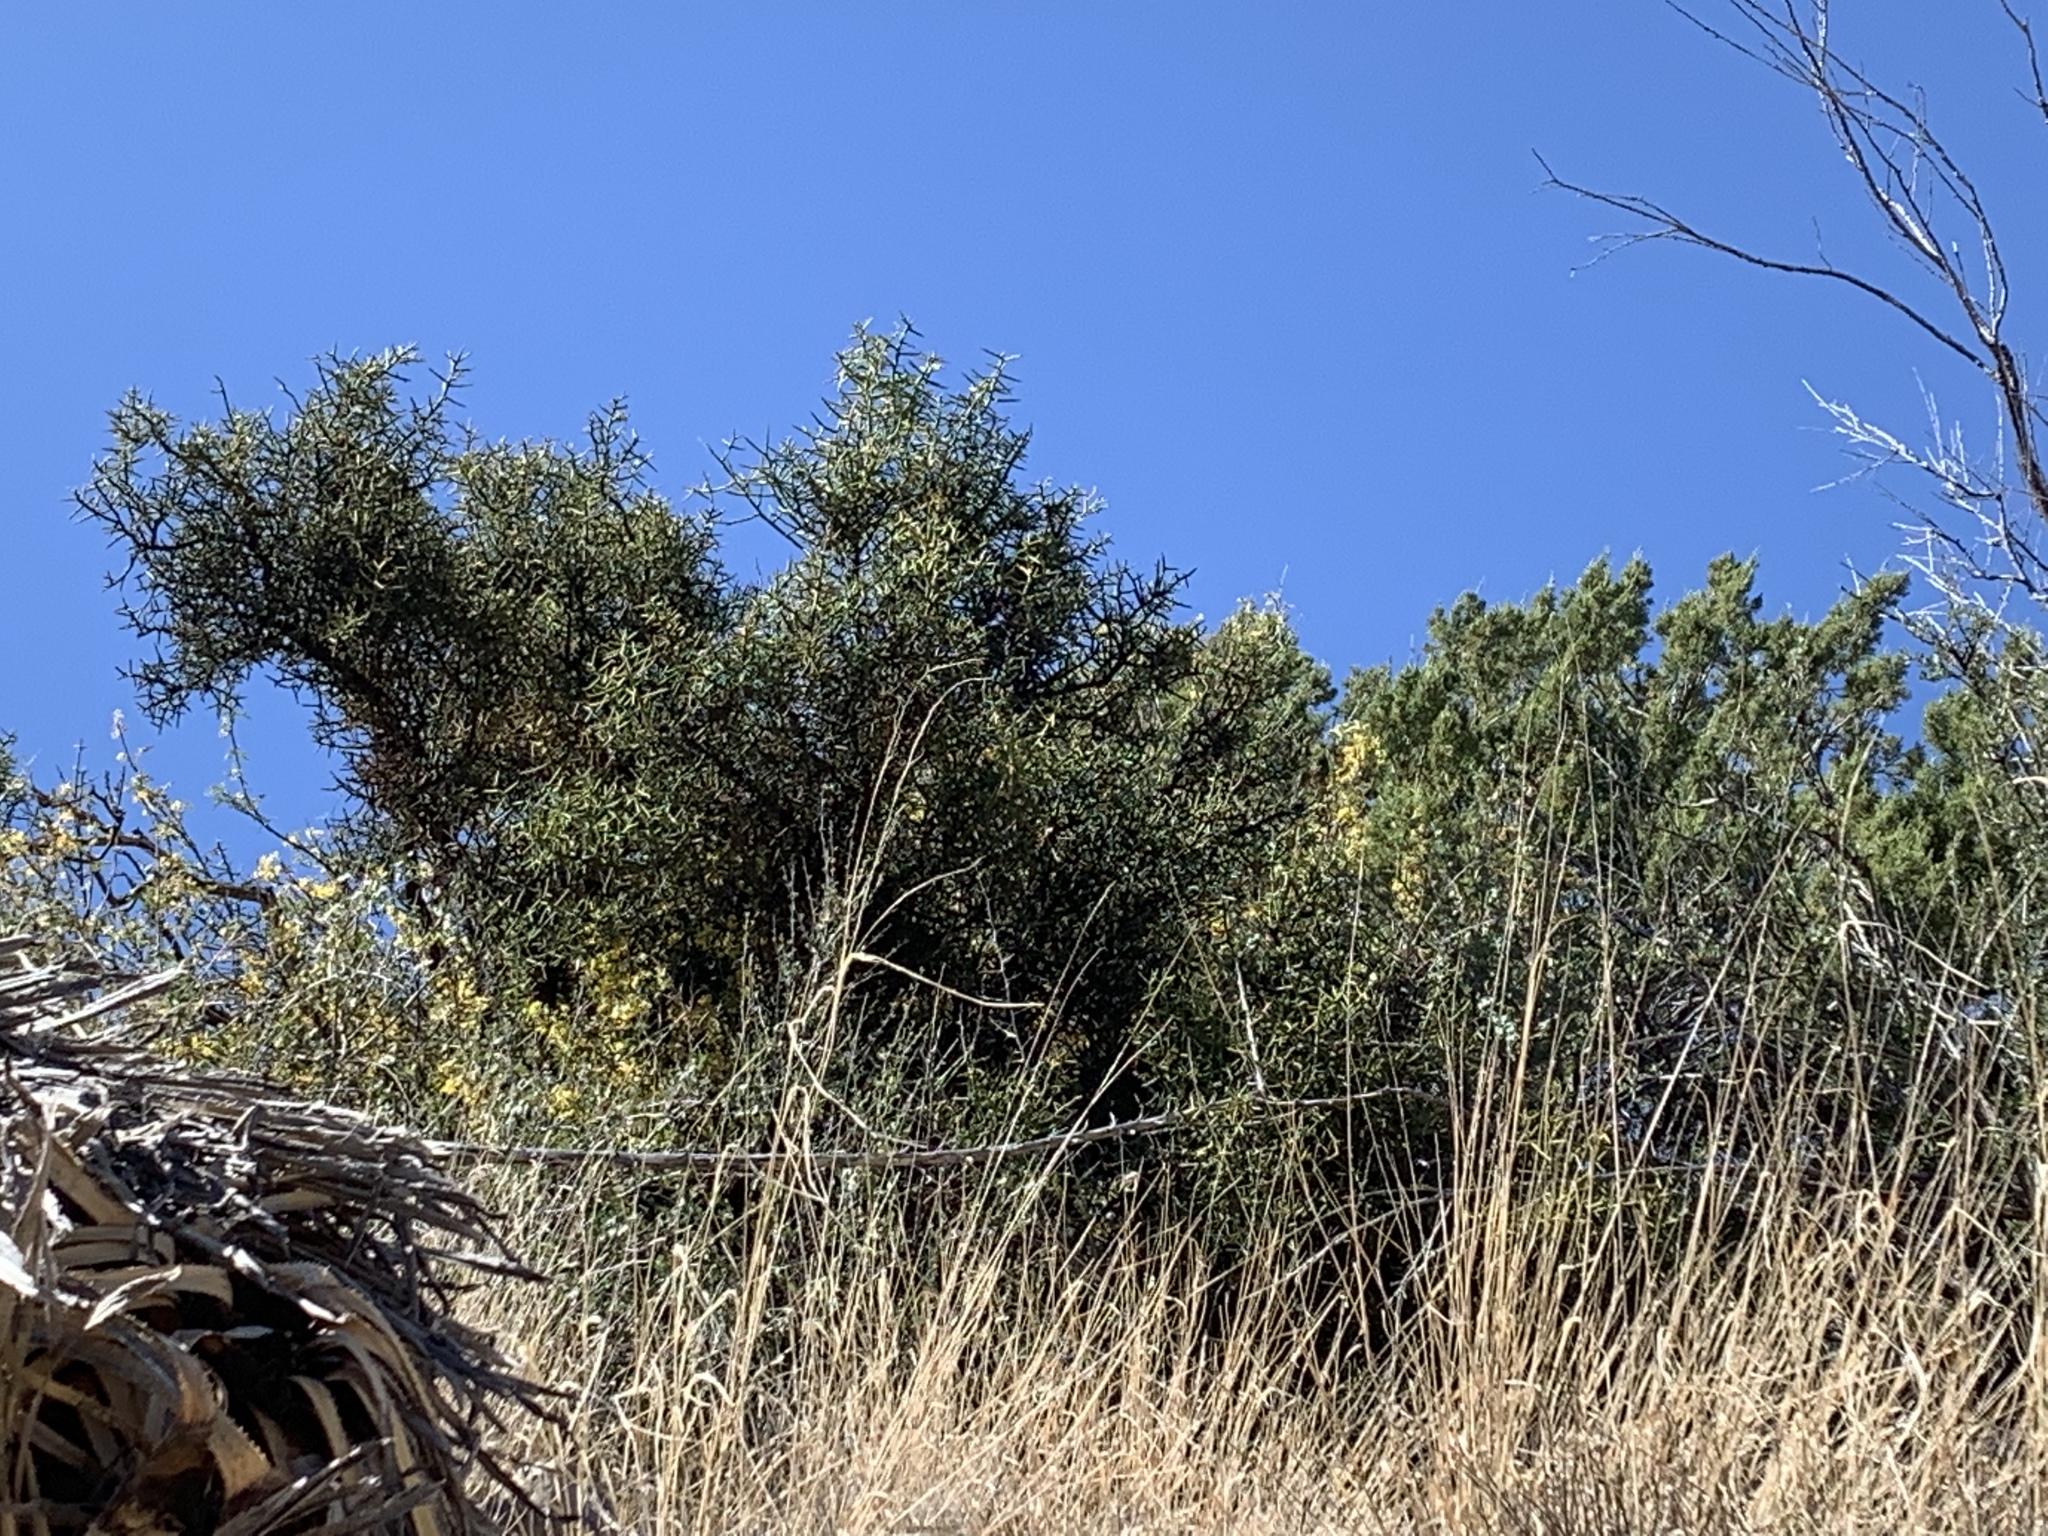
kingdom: Plantae
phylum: Tracheophyta
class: Magnoliopsida
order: Brassicales
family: Koeberliniaceae
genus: Koeberlinia
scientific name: Koeberlinia spinosa
